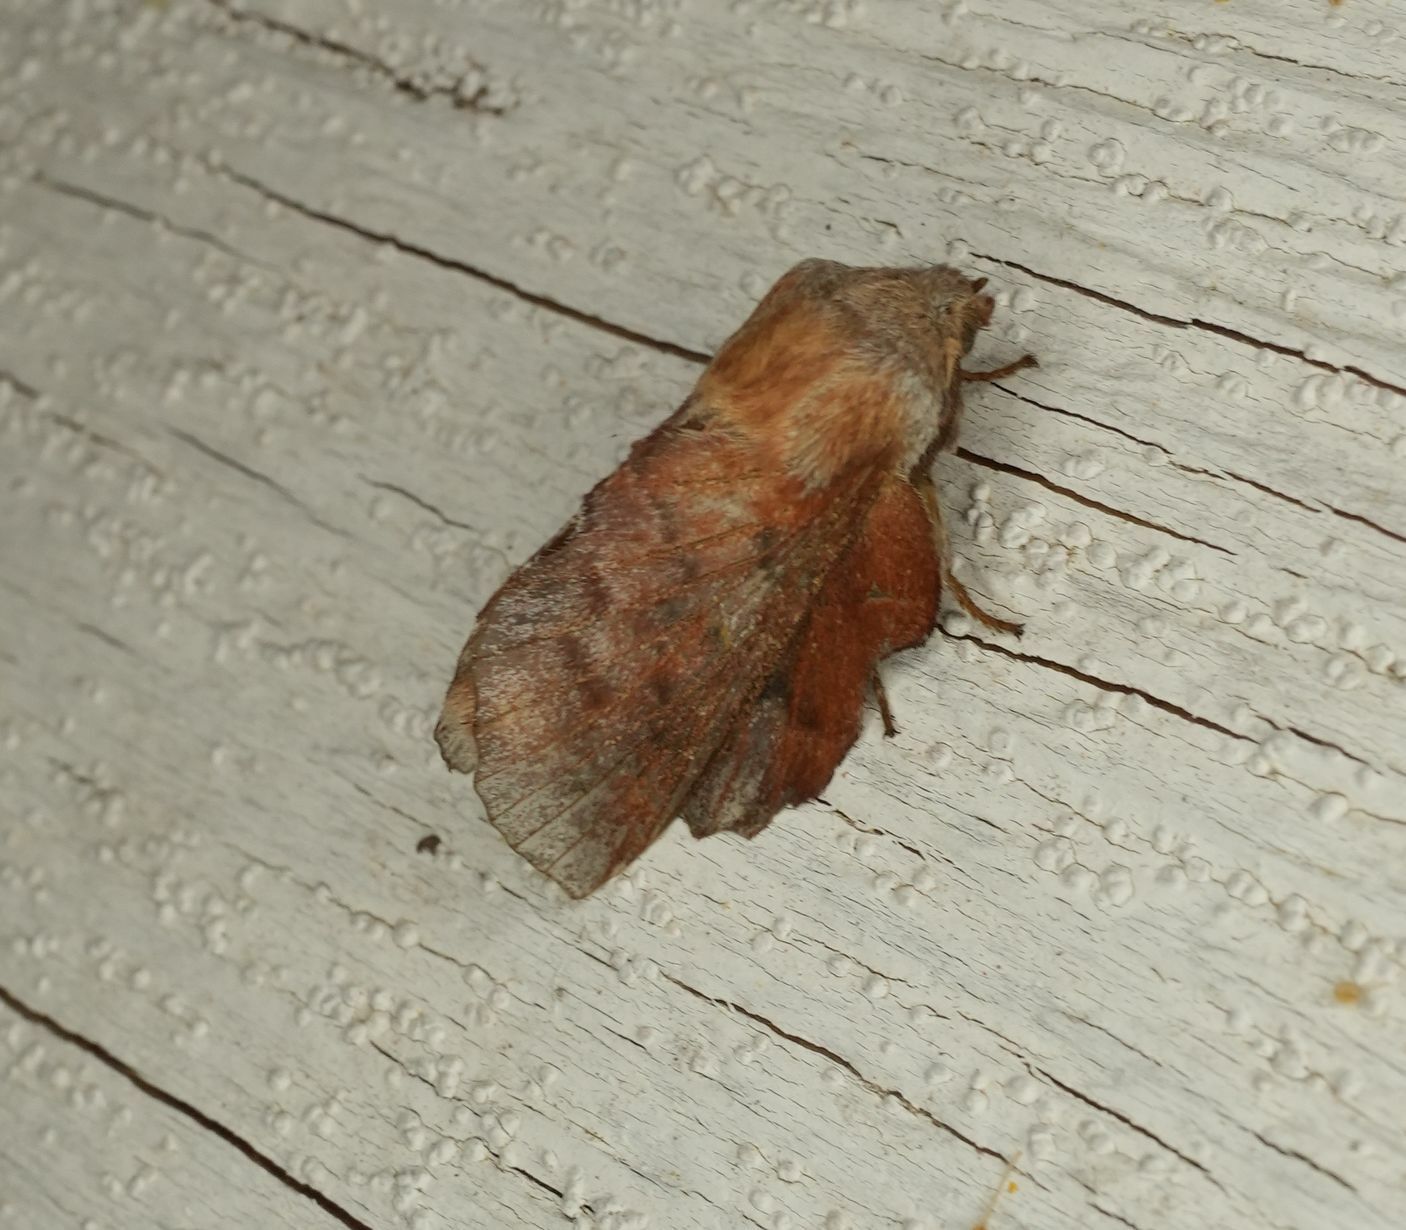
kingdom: Animalia
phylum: Arthropoda
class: Insecta
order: Lepidoptera
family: Lasiocampidae
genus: Phyllodesma
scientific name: Phyllodesma americana
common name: American lappet moth
